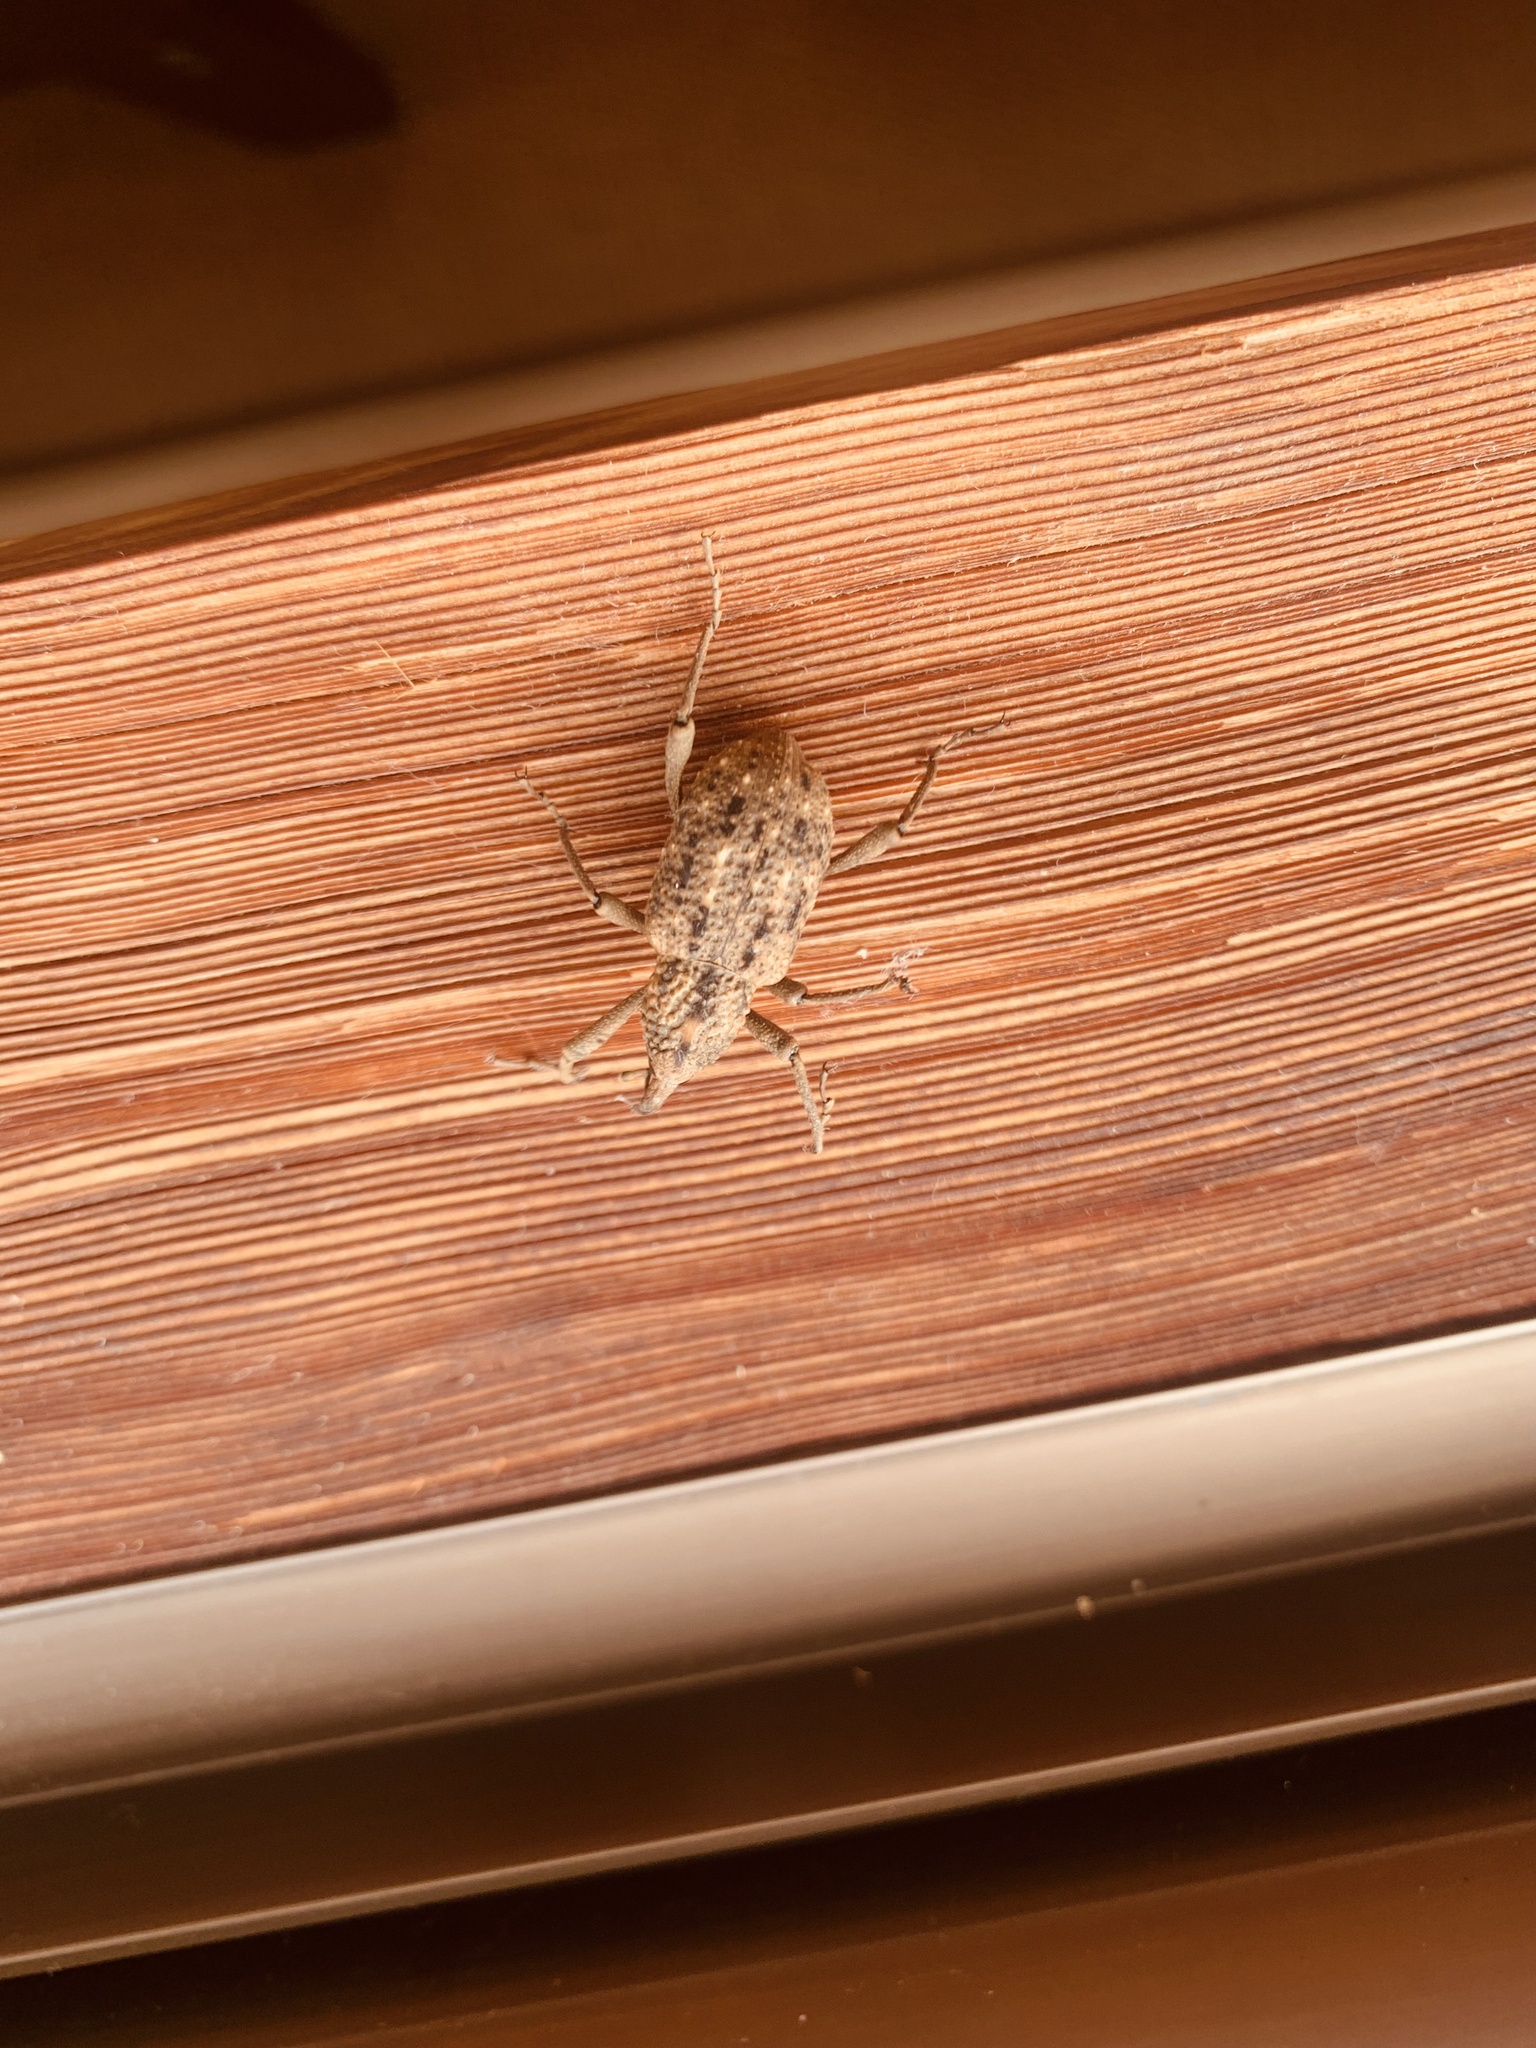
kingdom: Animalia
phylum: Arthropoda
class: Insecta
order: Coleoptera
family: Dryophthoridae
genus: Sipalinus
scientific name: Sipalinus gigas
